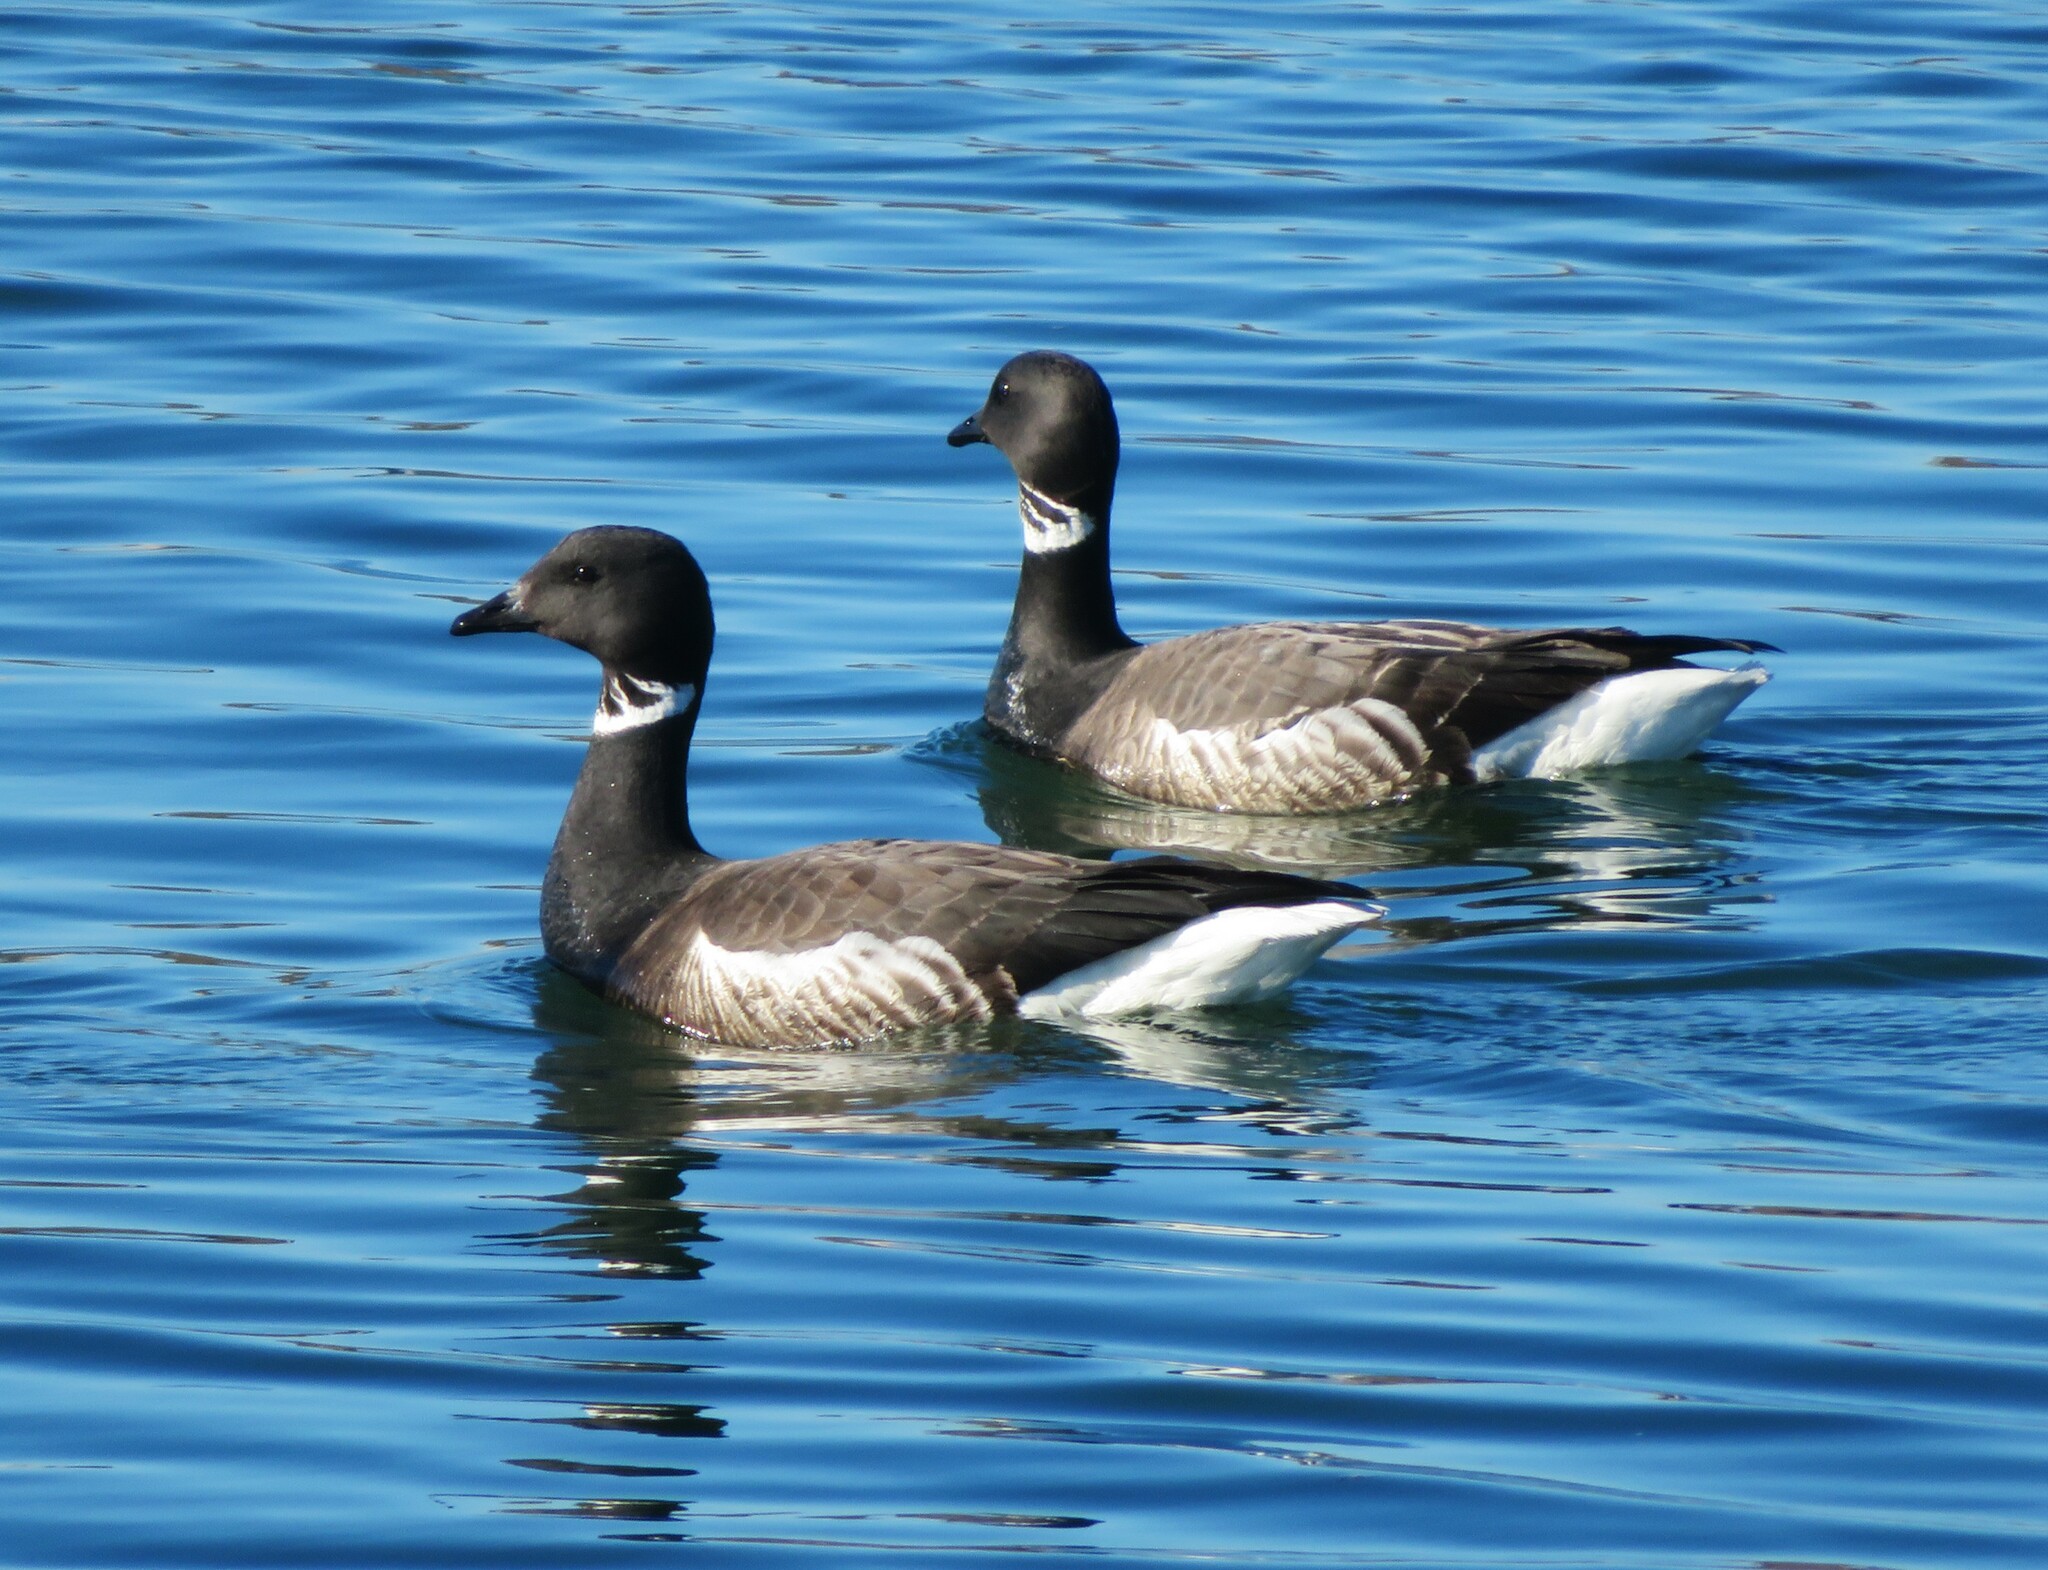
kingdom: Animalia
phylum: Chordata
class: Aves
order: Anseriformes
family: Anatidae
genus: Branta
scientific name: Branta bernicla
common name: Brant goose
